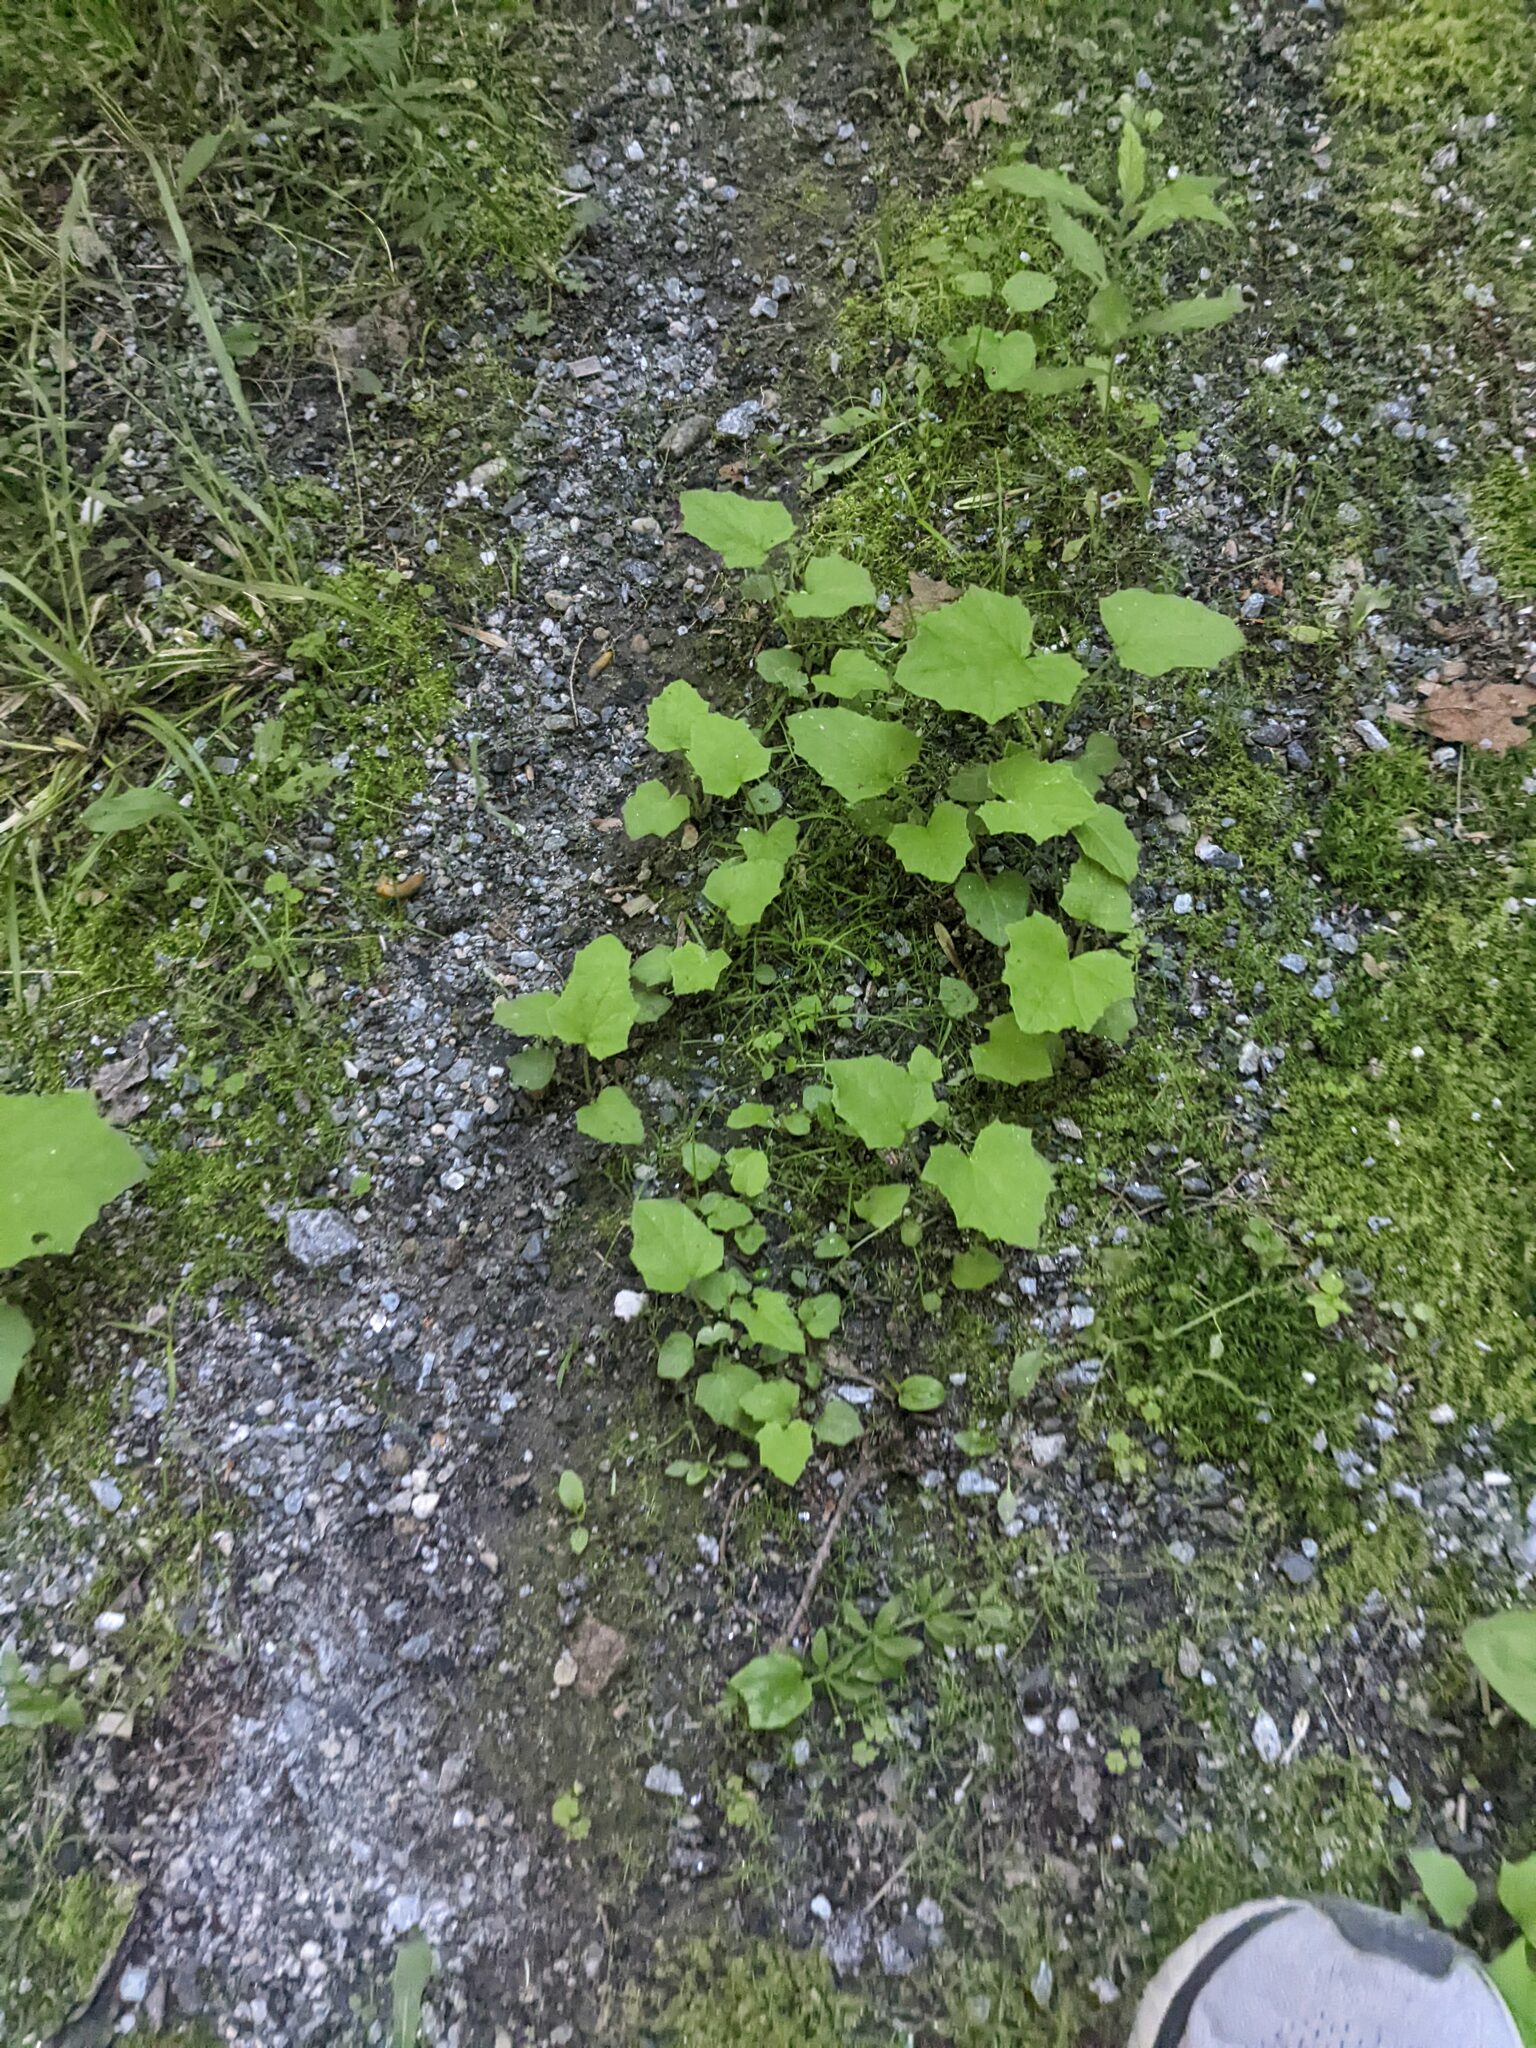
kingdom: Plantae
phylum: Tracheophyta
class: Magnoliopsida
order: Asterales
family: Asteraceae
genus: Tussilago
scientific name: Tussilago farfara
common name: Coltsfoot
